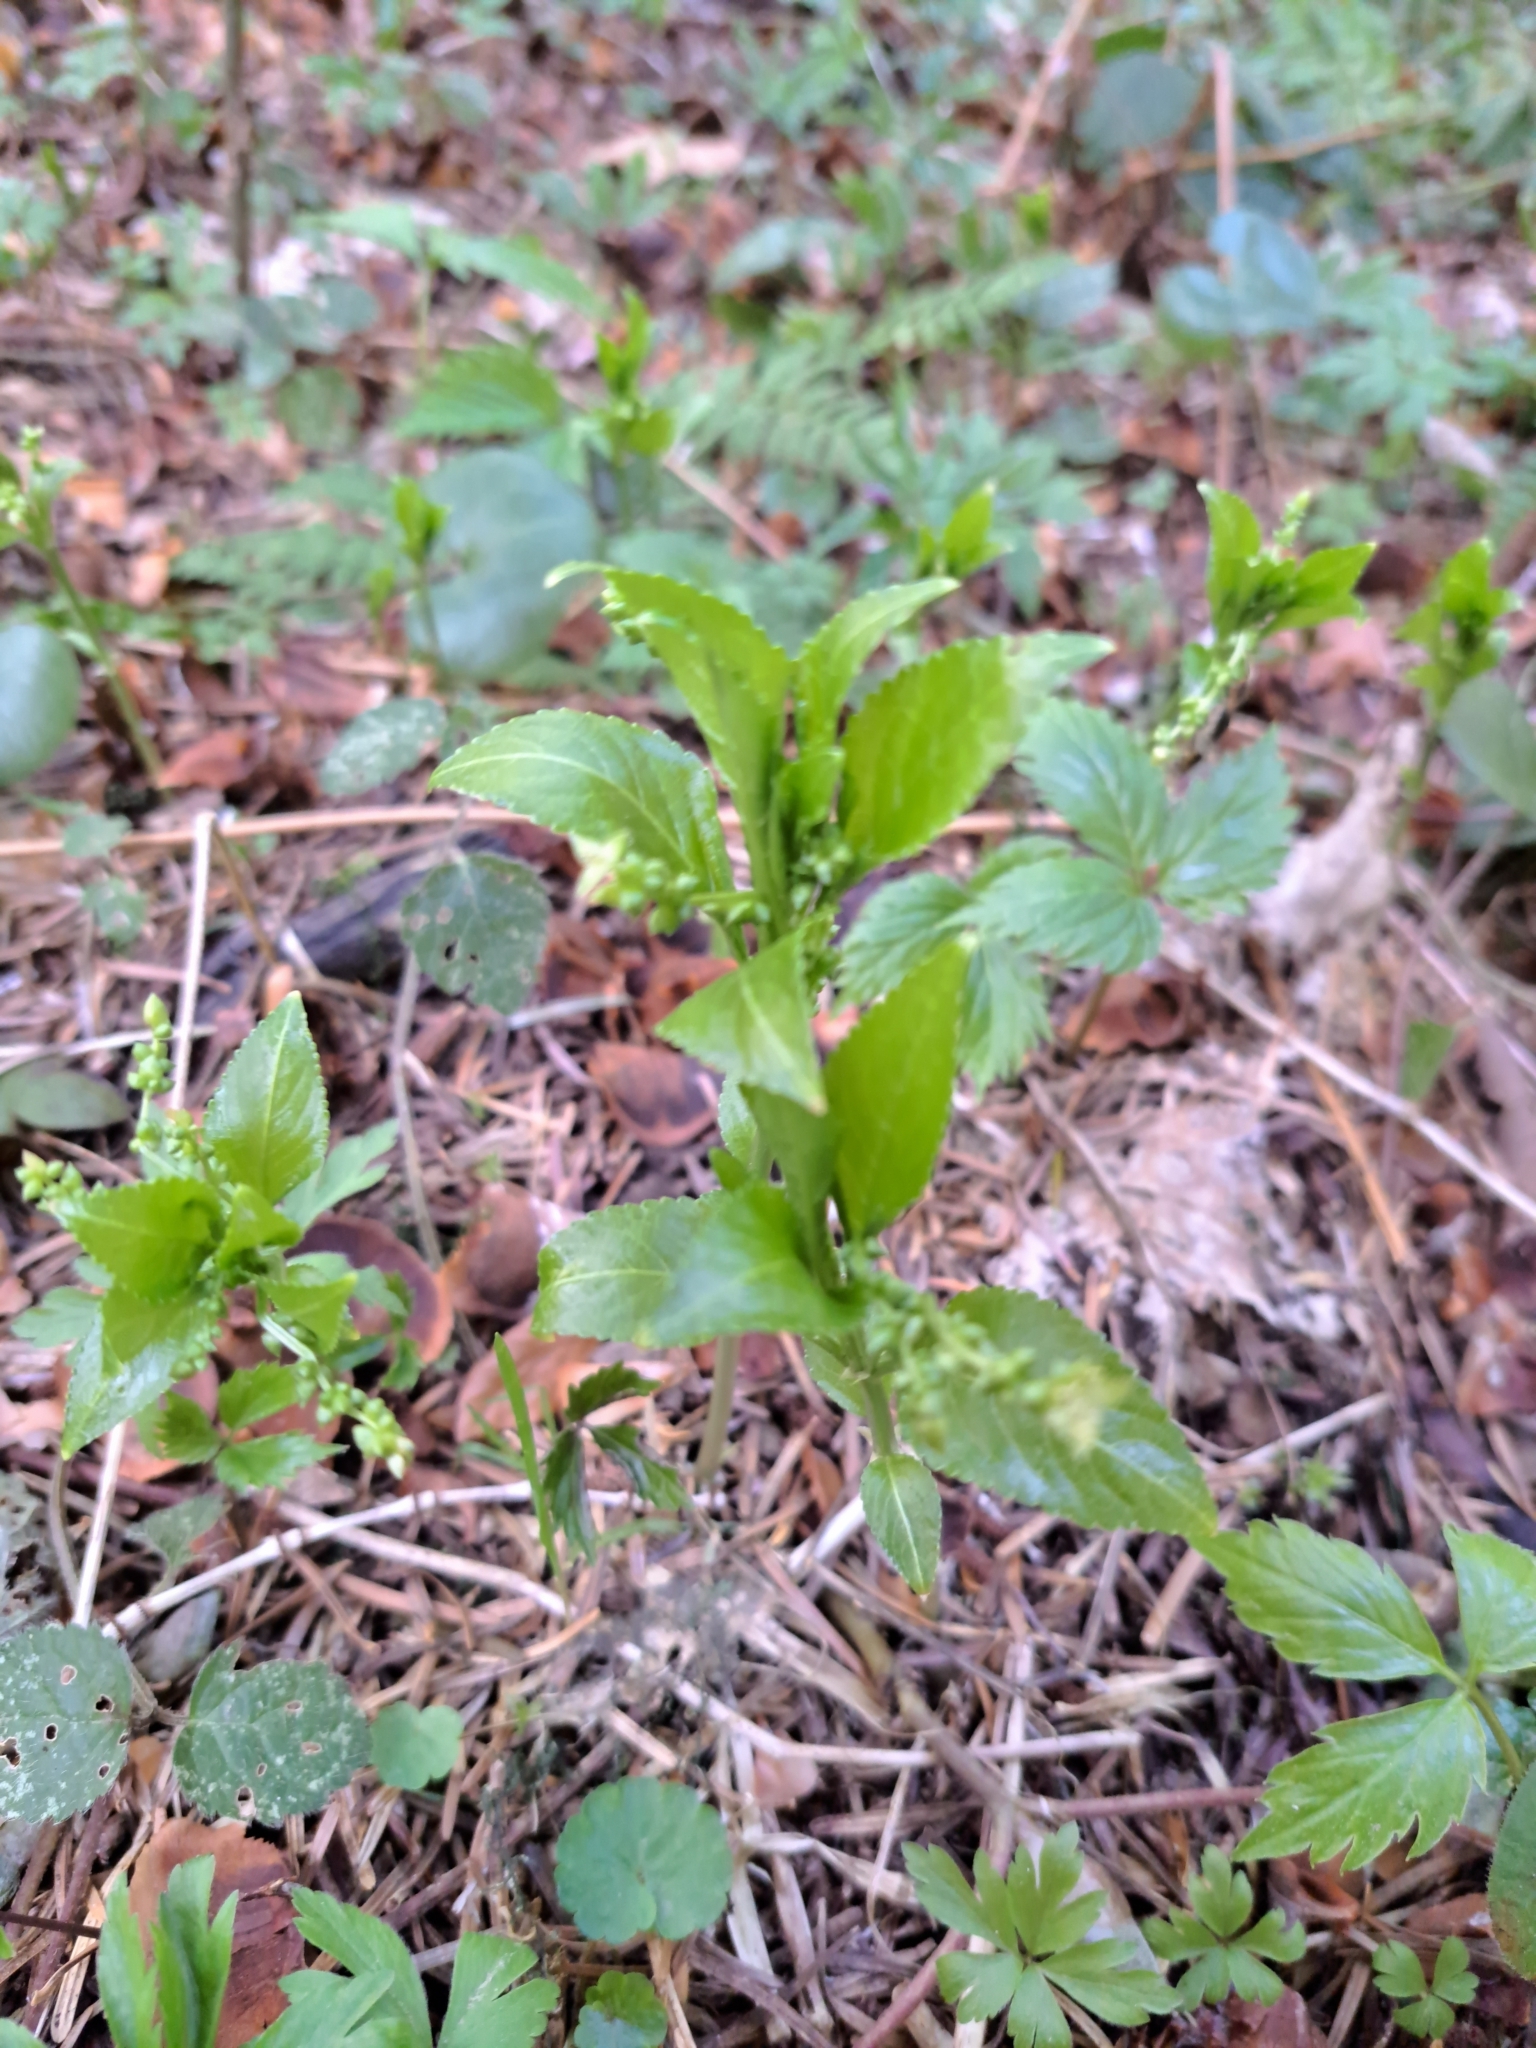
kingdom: Plantae
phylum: Tracheophyta
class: Magnoliopsida
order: Malpighiales
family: Euphorbiaceae
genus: Mercurialis
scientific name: Mercurialis perennis
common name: Dog mercury
